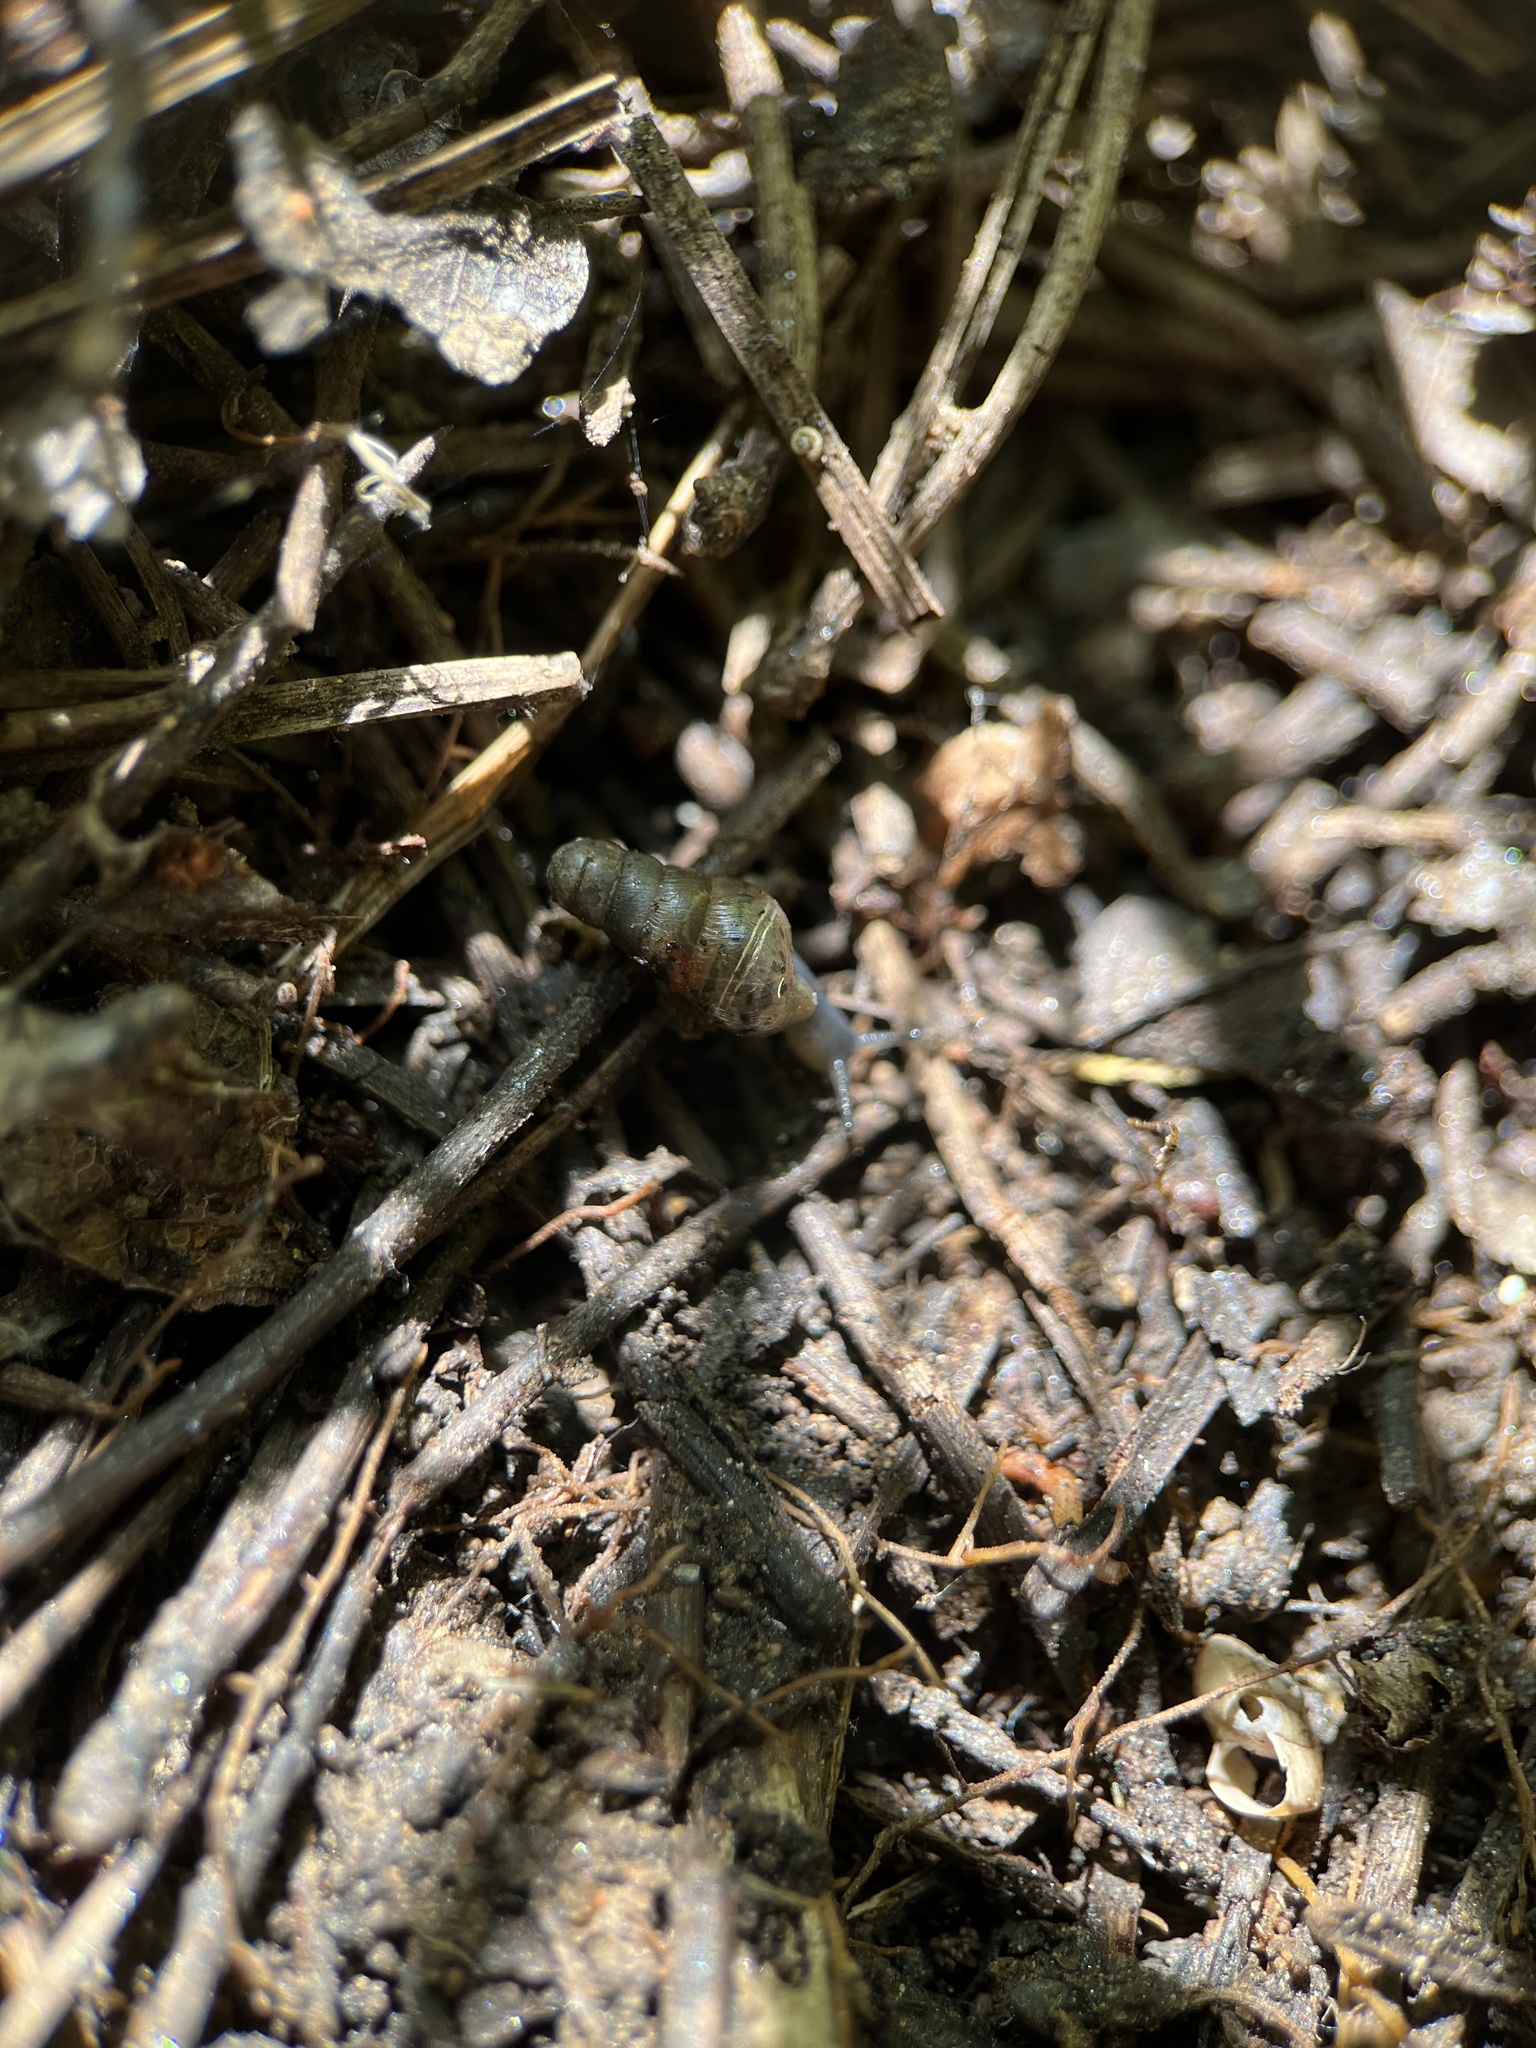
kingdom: Animalia
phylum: Mollusca
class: Gastropoda
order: Stylommatophora
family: Achatinidae
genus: Rumina
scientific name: Rumina decollata
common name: Decollate snail
